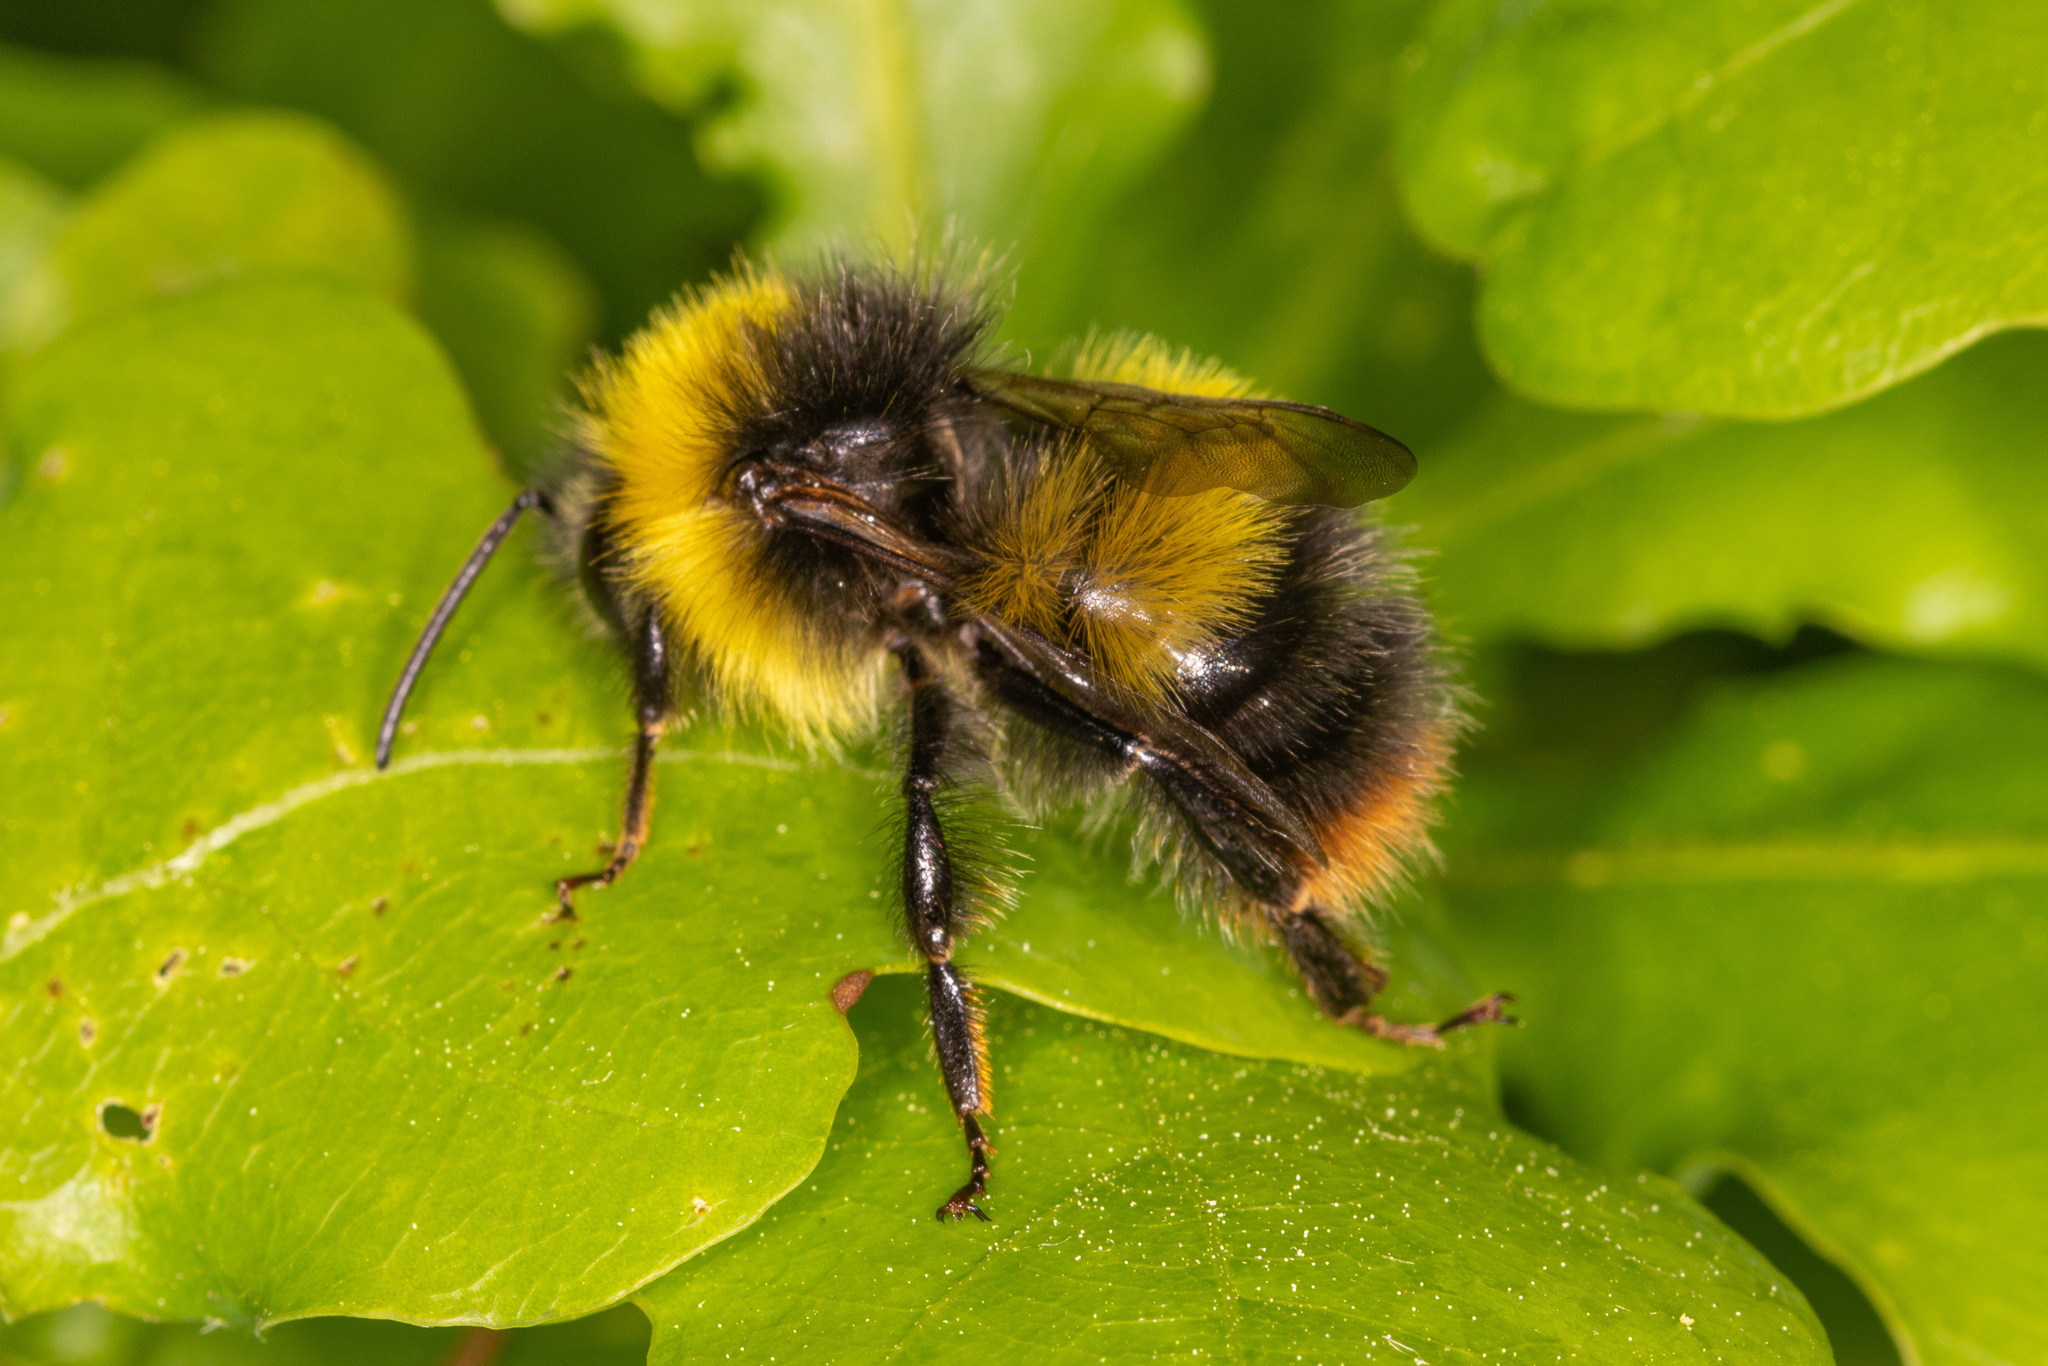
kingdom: Animalia
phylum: Arthropoda
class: Insecta
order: Hymenoptera
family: Apidae
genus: Bombus
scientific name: Bombus pratorum
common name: Early humble-bee
